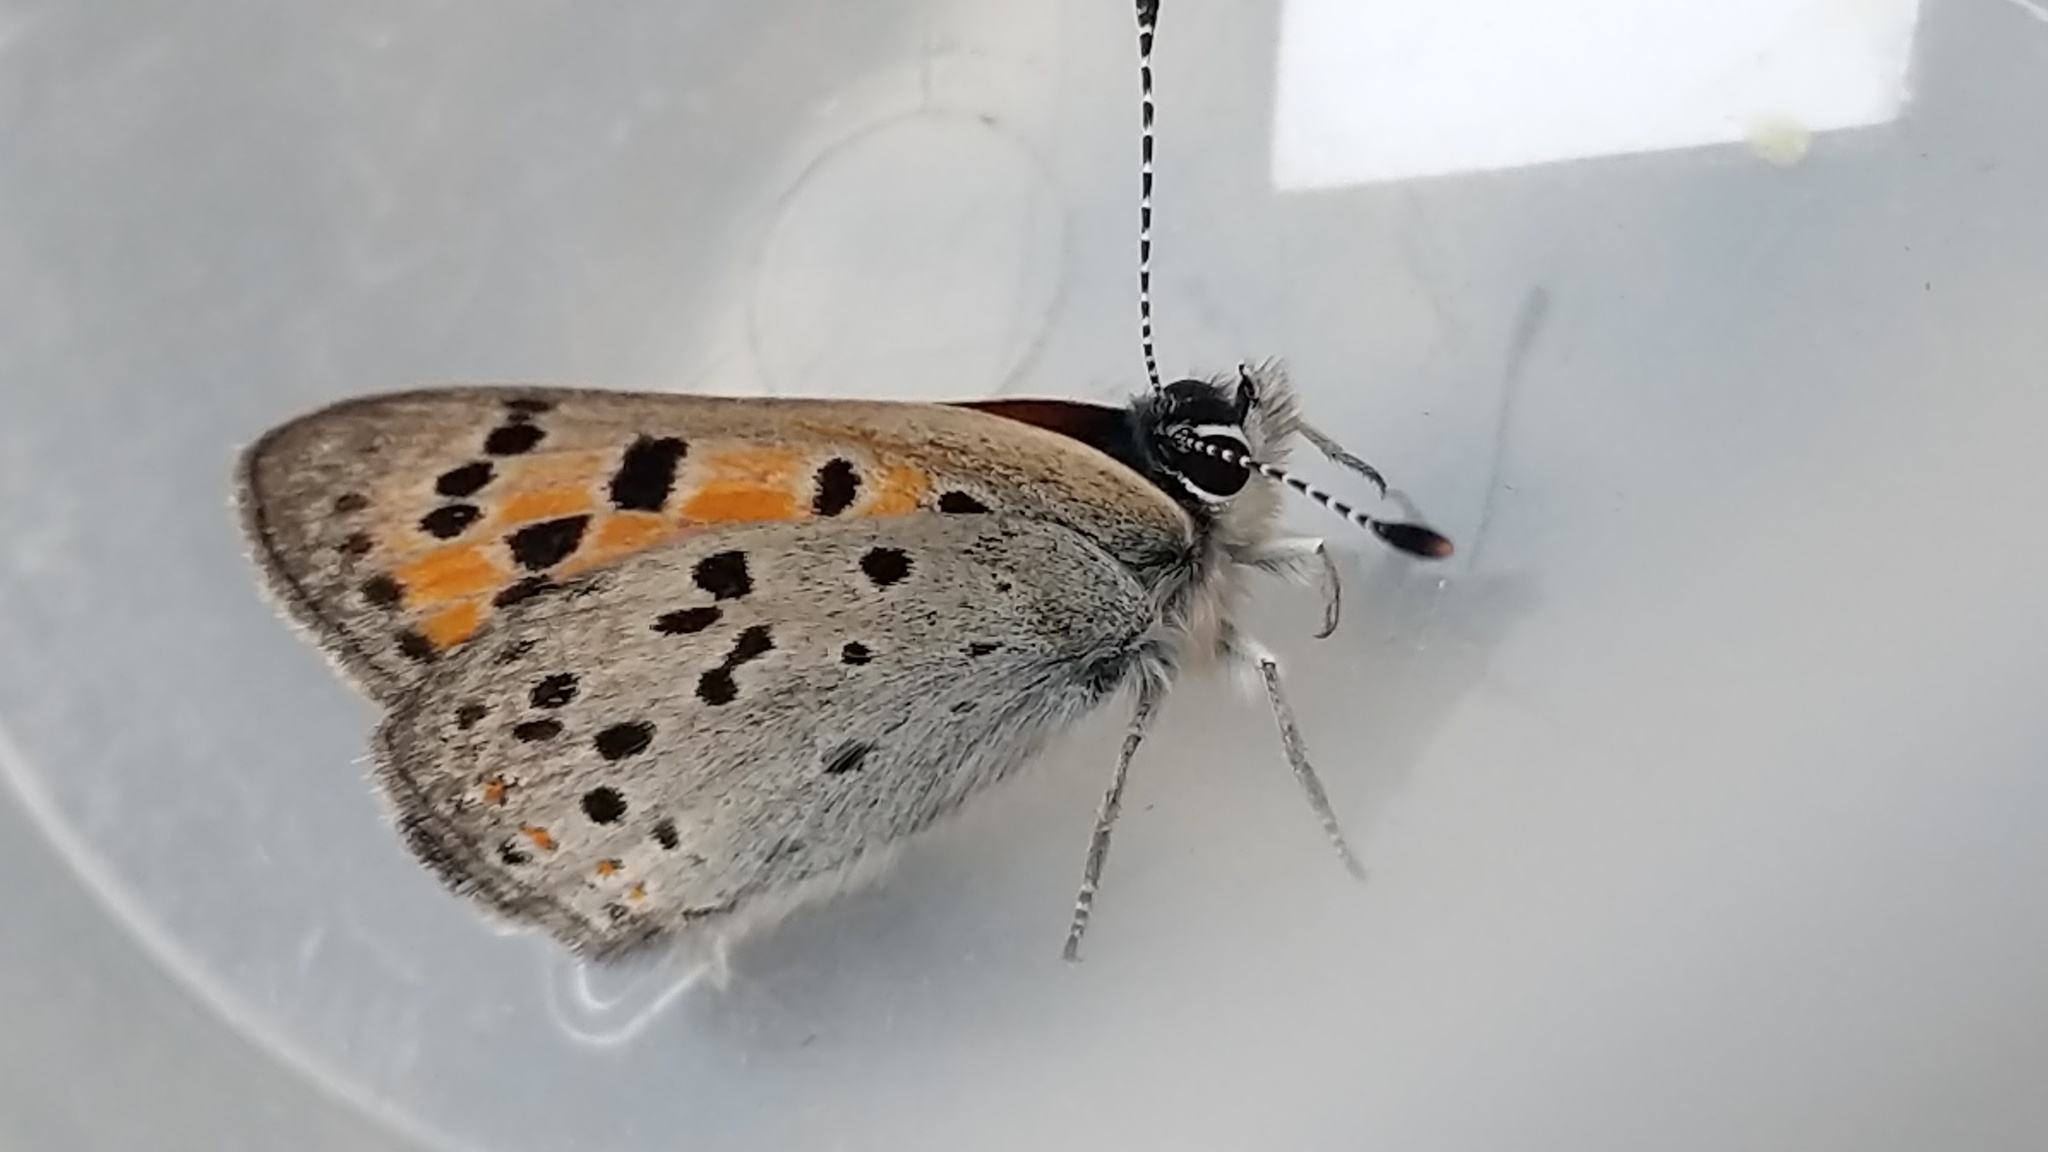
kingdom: Animalia
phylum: Arthropoda
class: Insecta
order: Lepidoptera
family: Lycaenidae
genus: Lycaena
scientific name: Lycaena cupreus
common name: Lustrous copper
